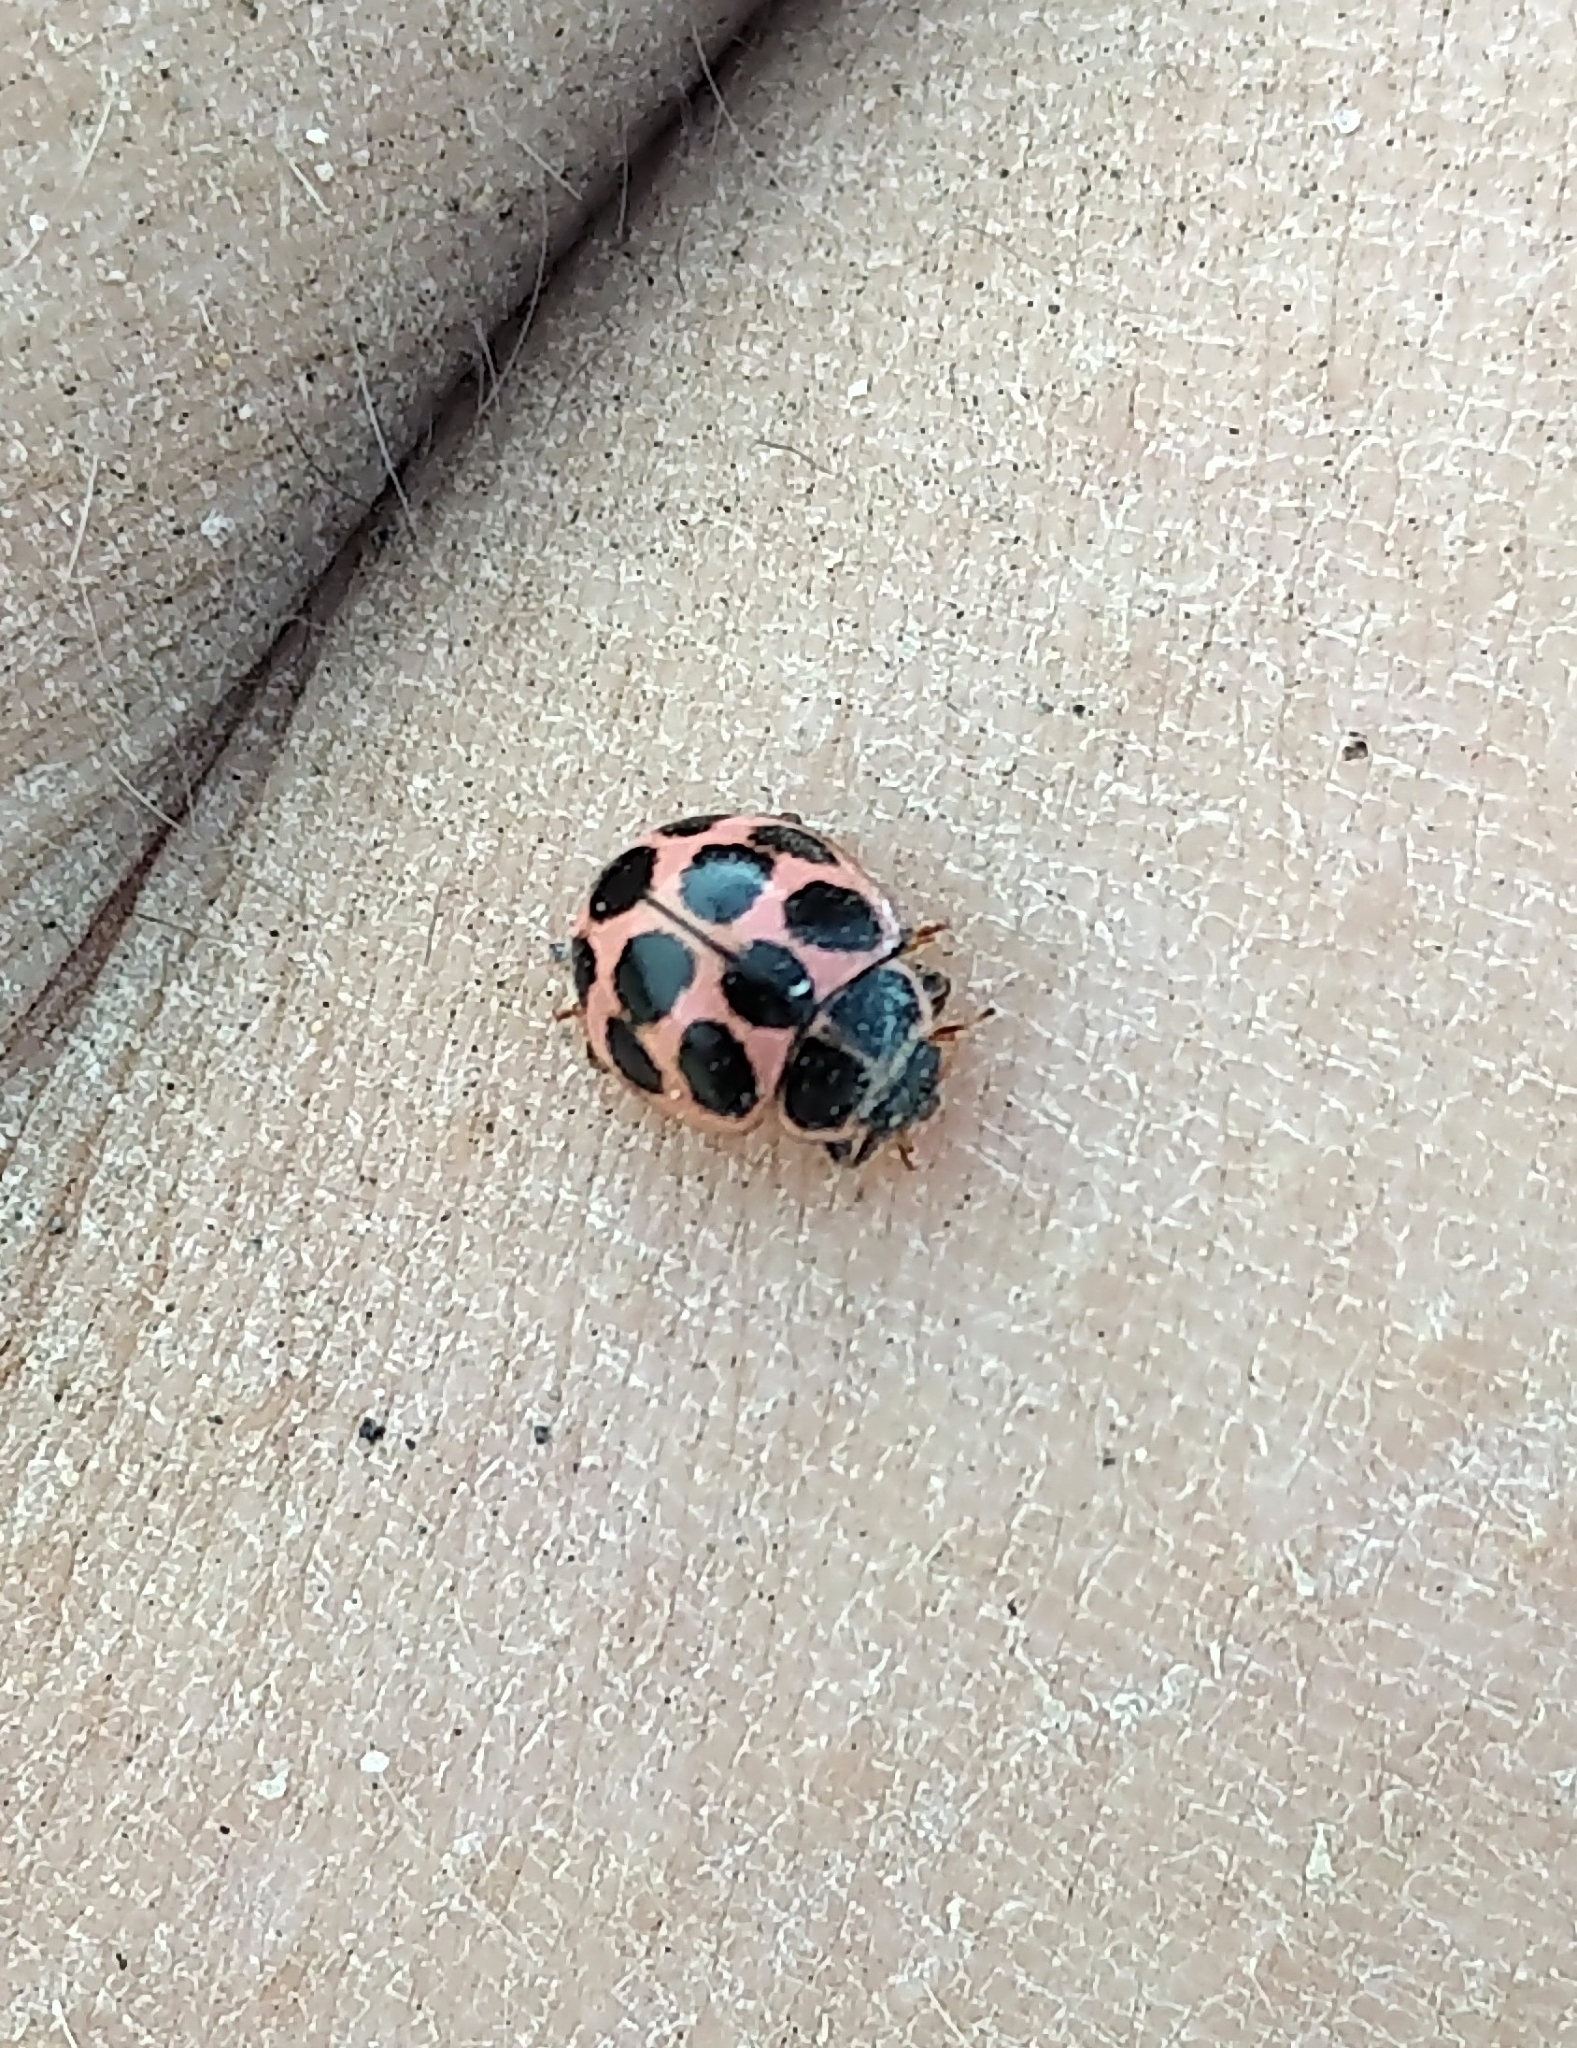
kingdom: Animalia
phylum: Arthropoda
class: Insecta
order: Coleoptera
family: Coccinellidae
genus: Calvia
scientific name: Calvia quatuordecimguttata
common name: Cream-spot ladybird
